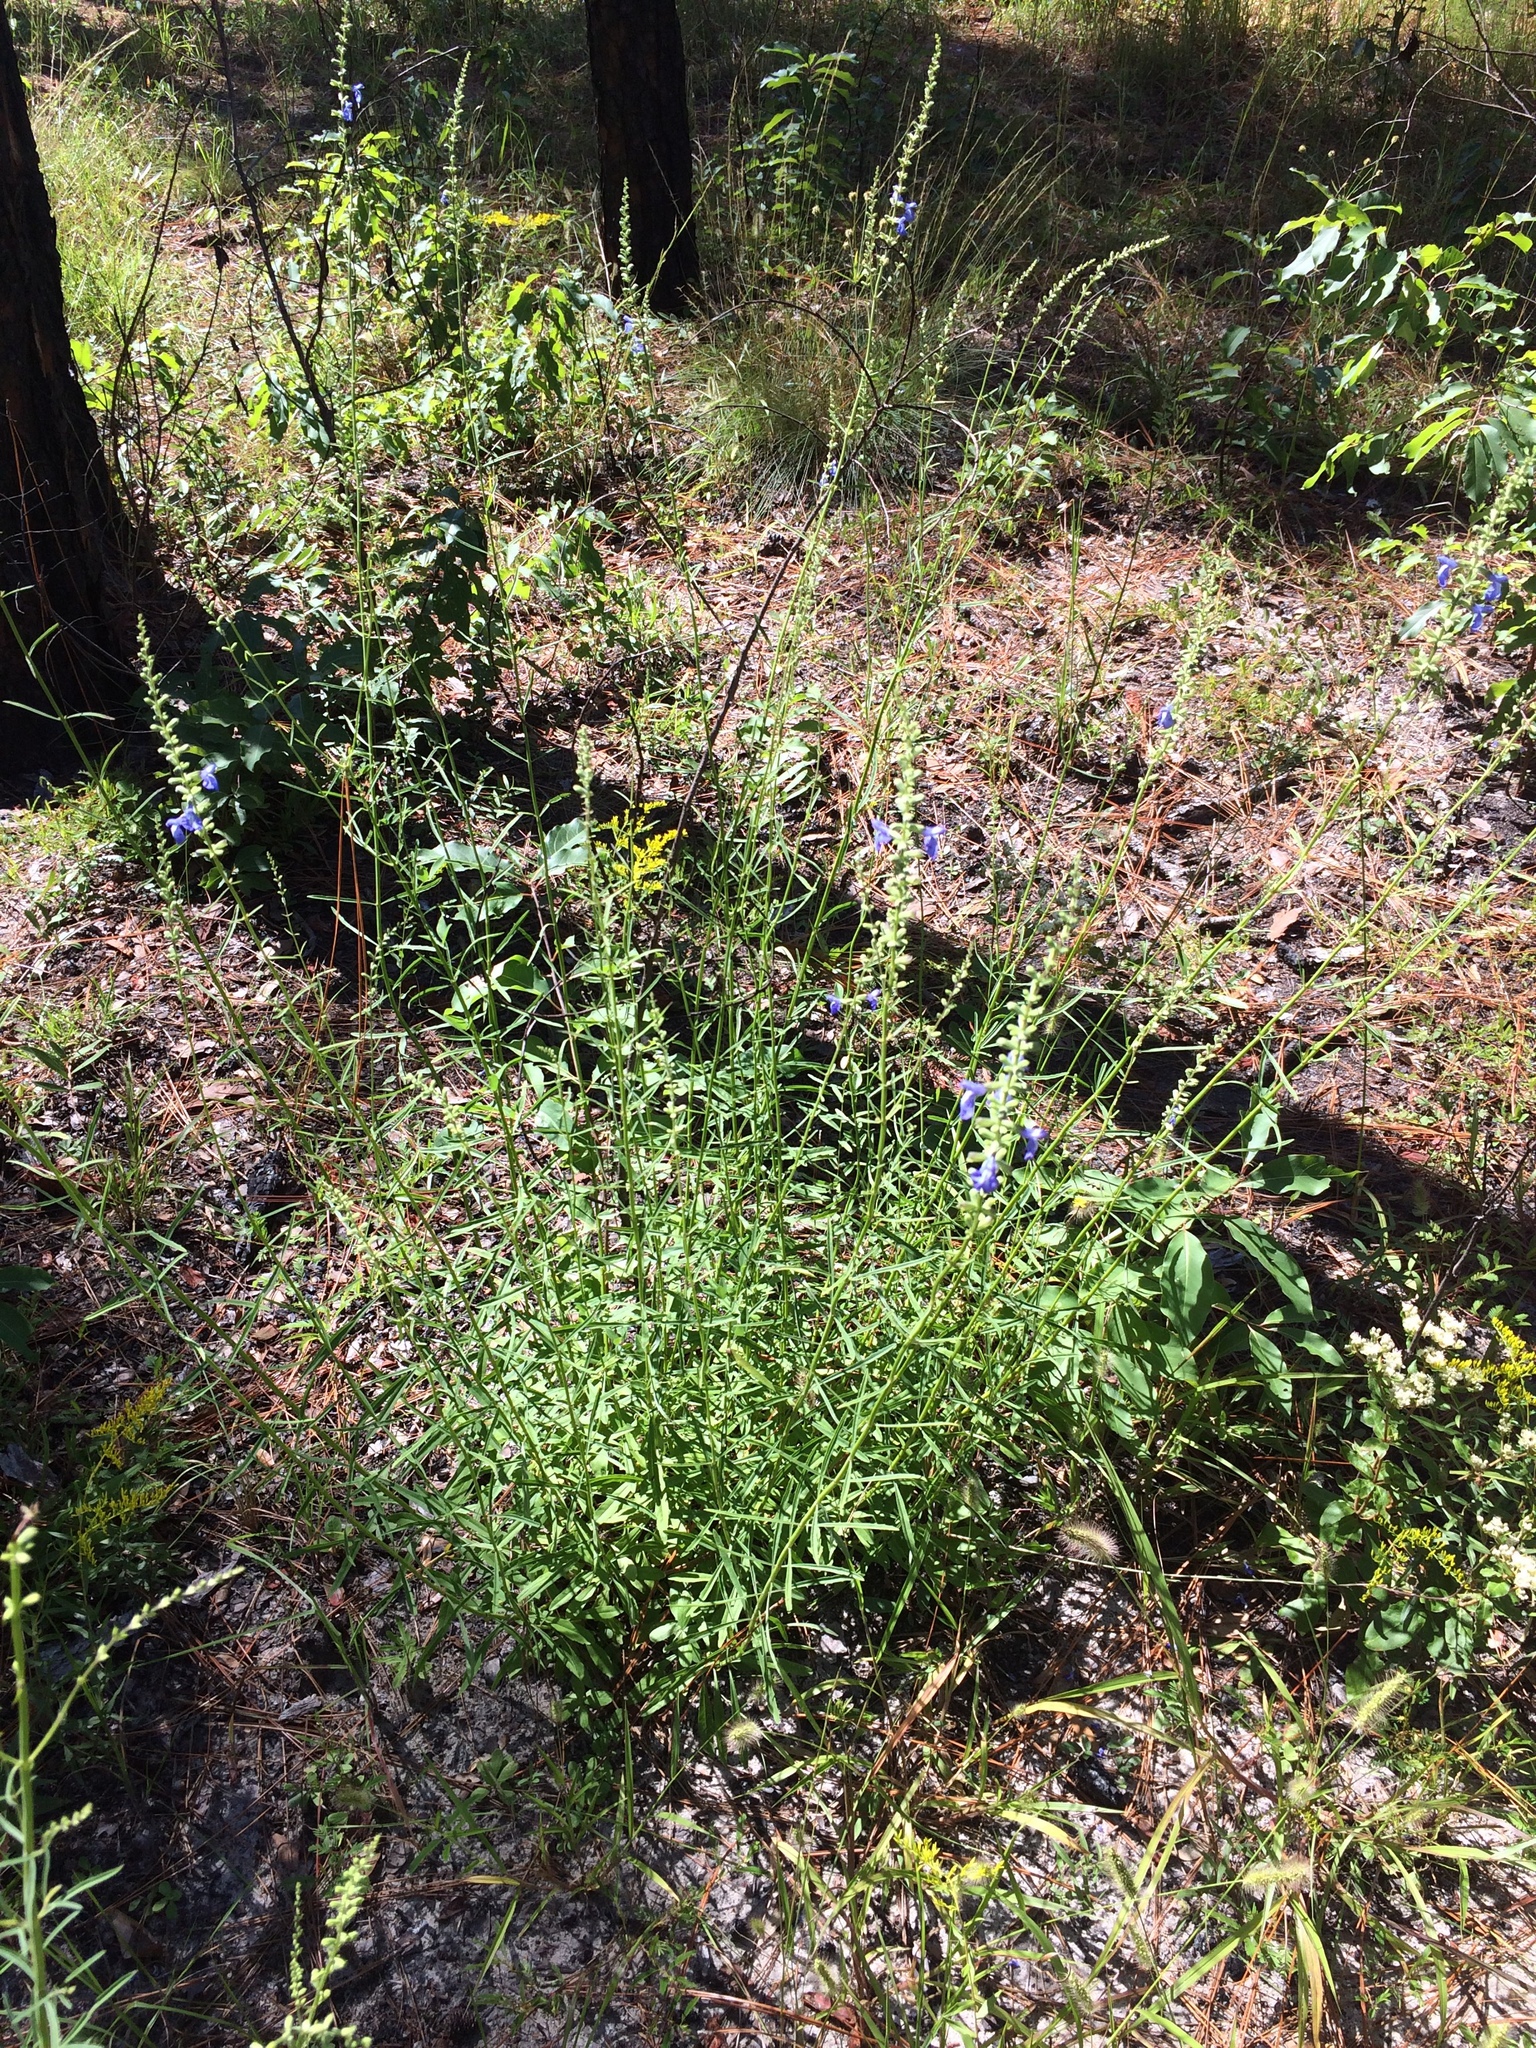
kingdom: Plantae
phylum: Tracheophyta
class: Magnoliopsida
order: Lamiales
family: Lamiaceae
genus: Salvia
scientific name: Salvia azurea
